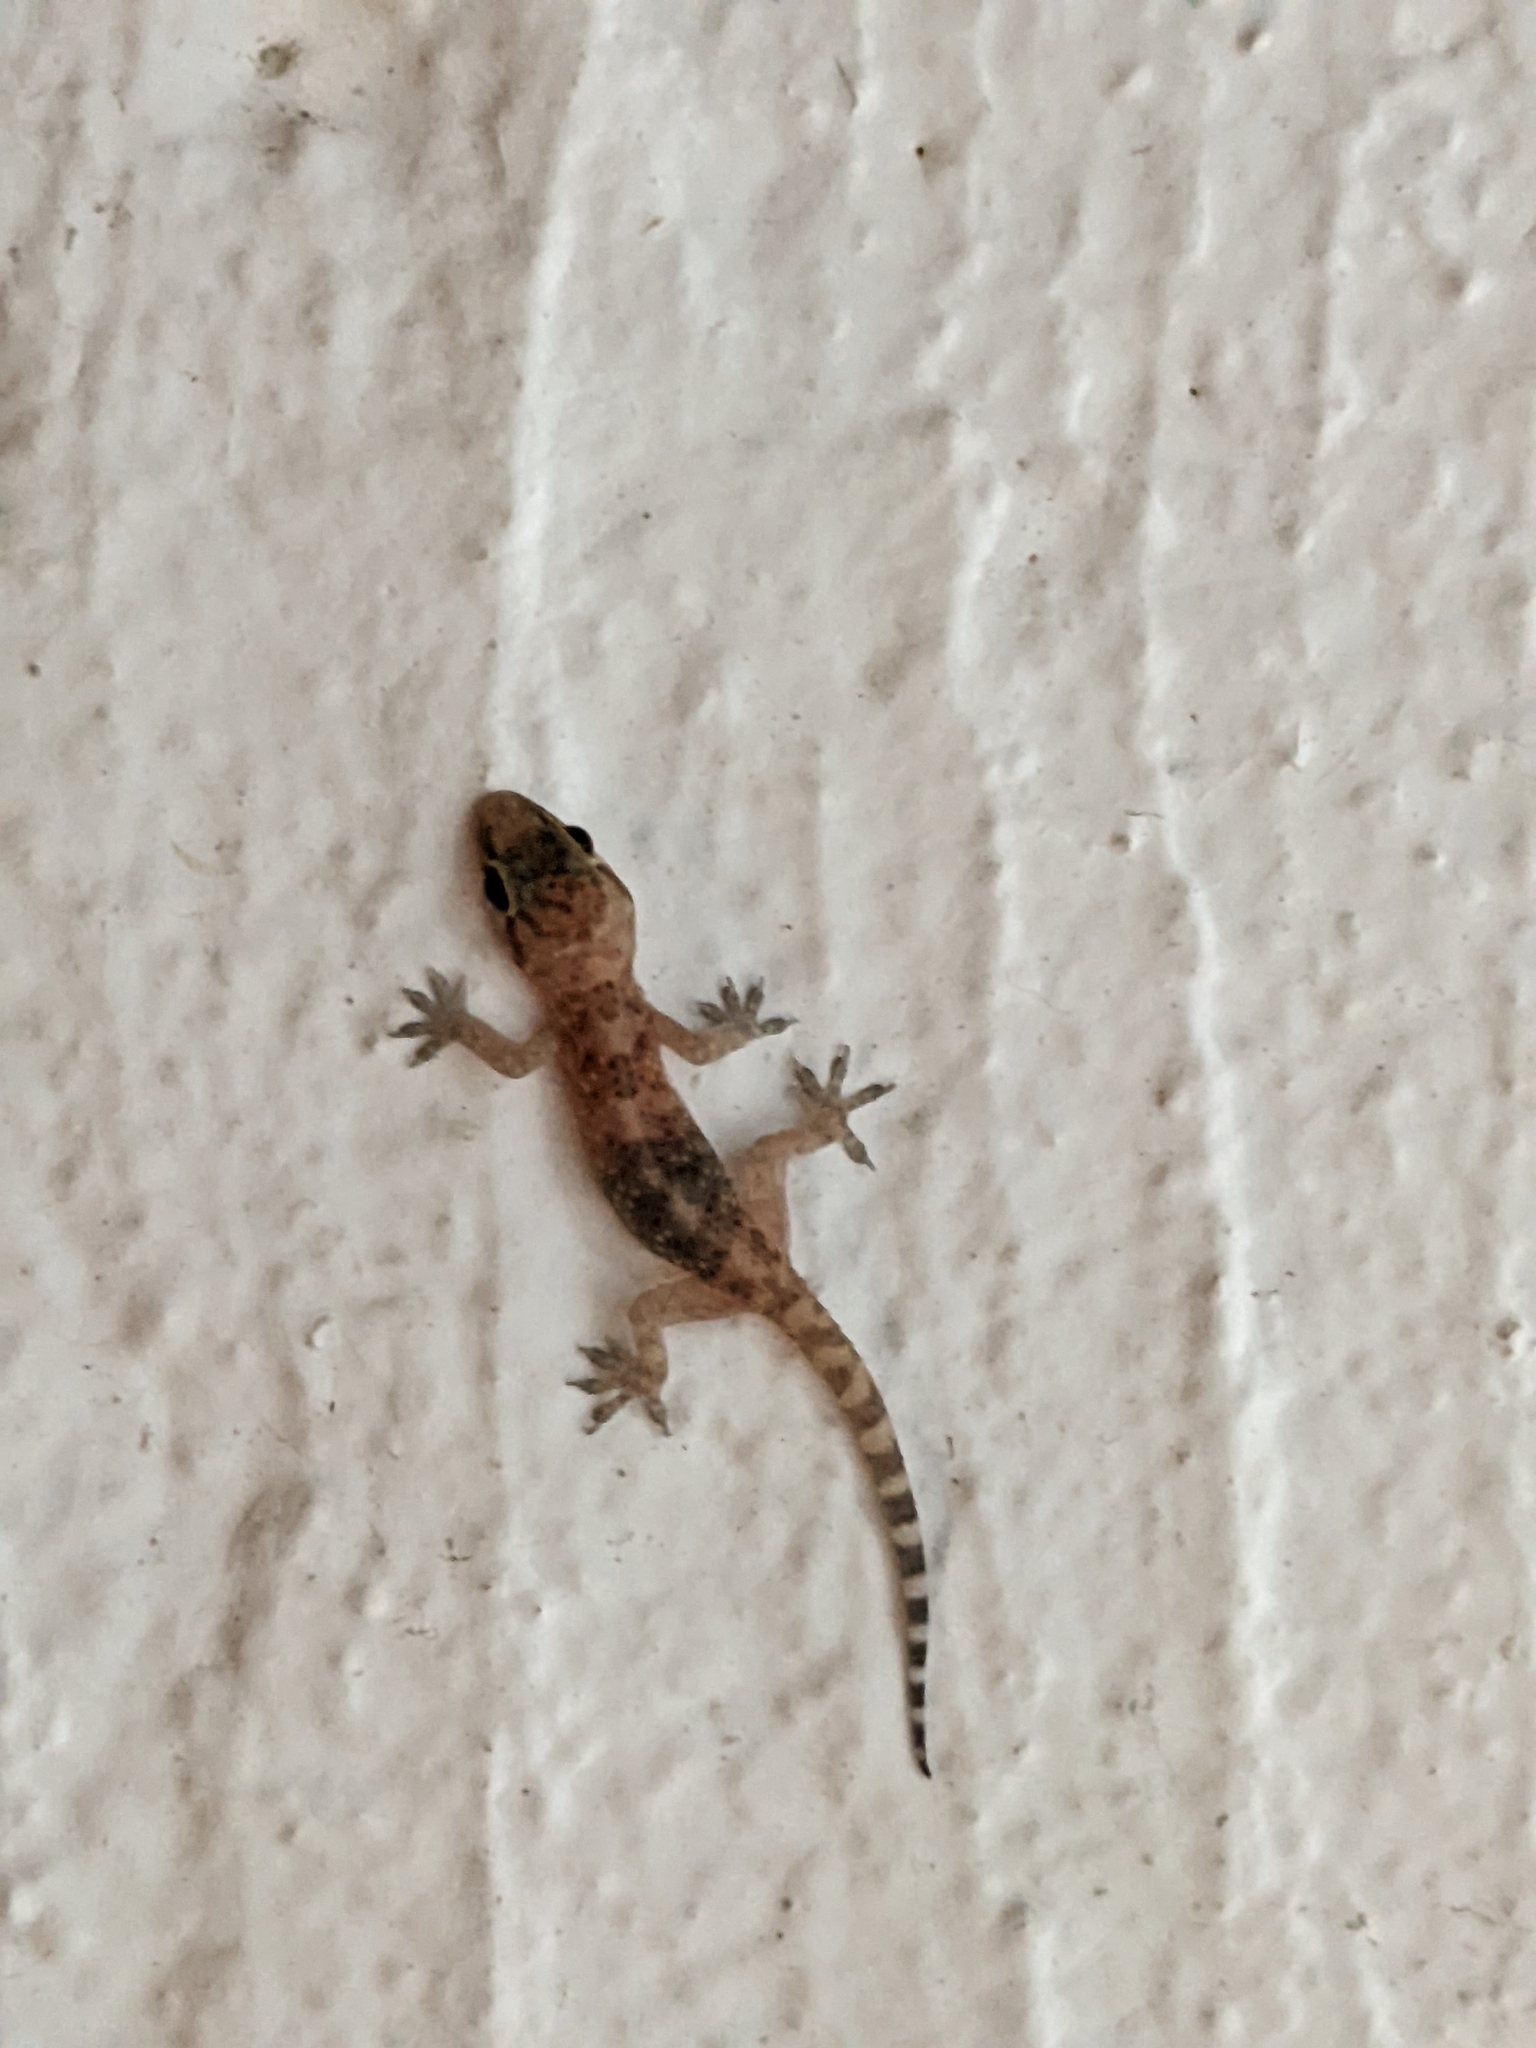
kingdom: Animalia
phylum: Chordata
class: Squamata
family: Gekkonidae
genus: Hemidactylus
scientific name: Hemidactylus turcicus
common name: Turkish gecko
